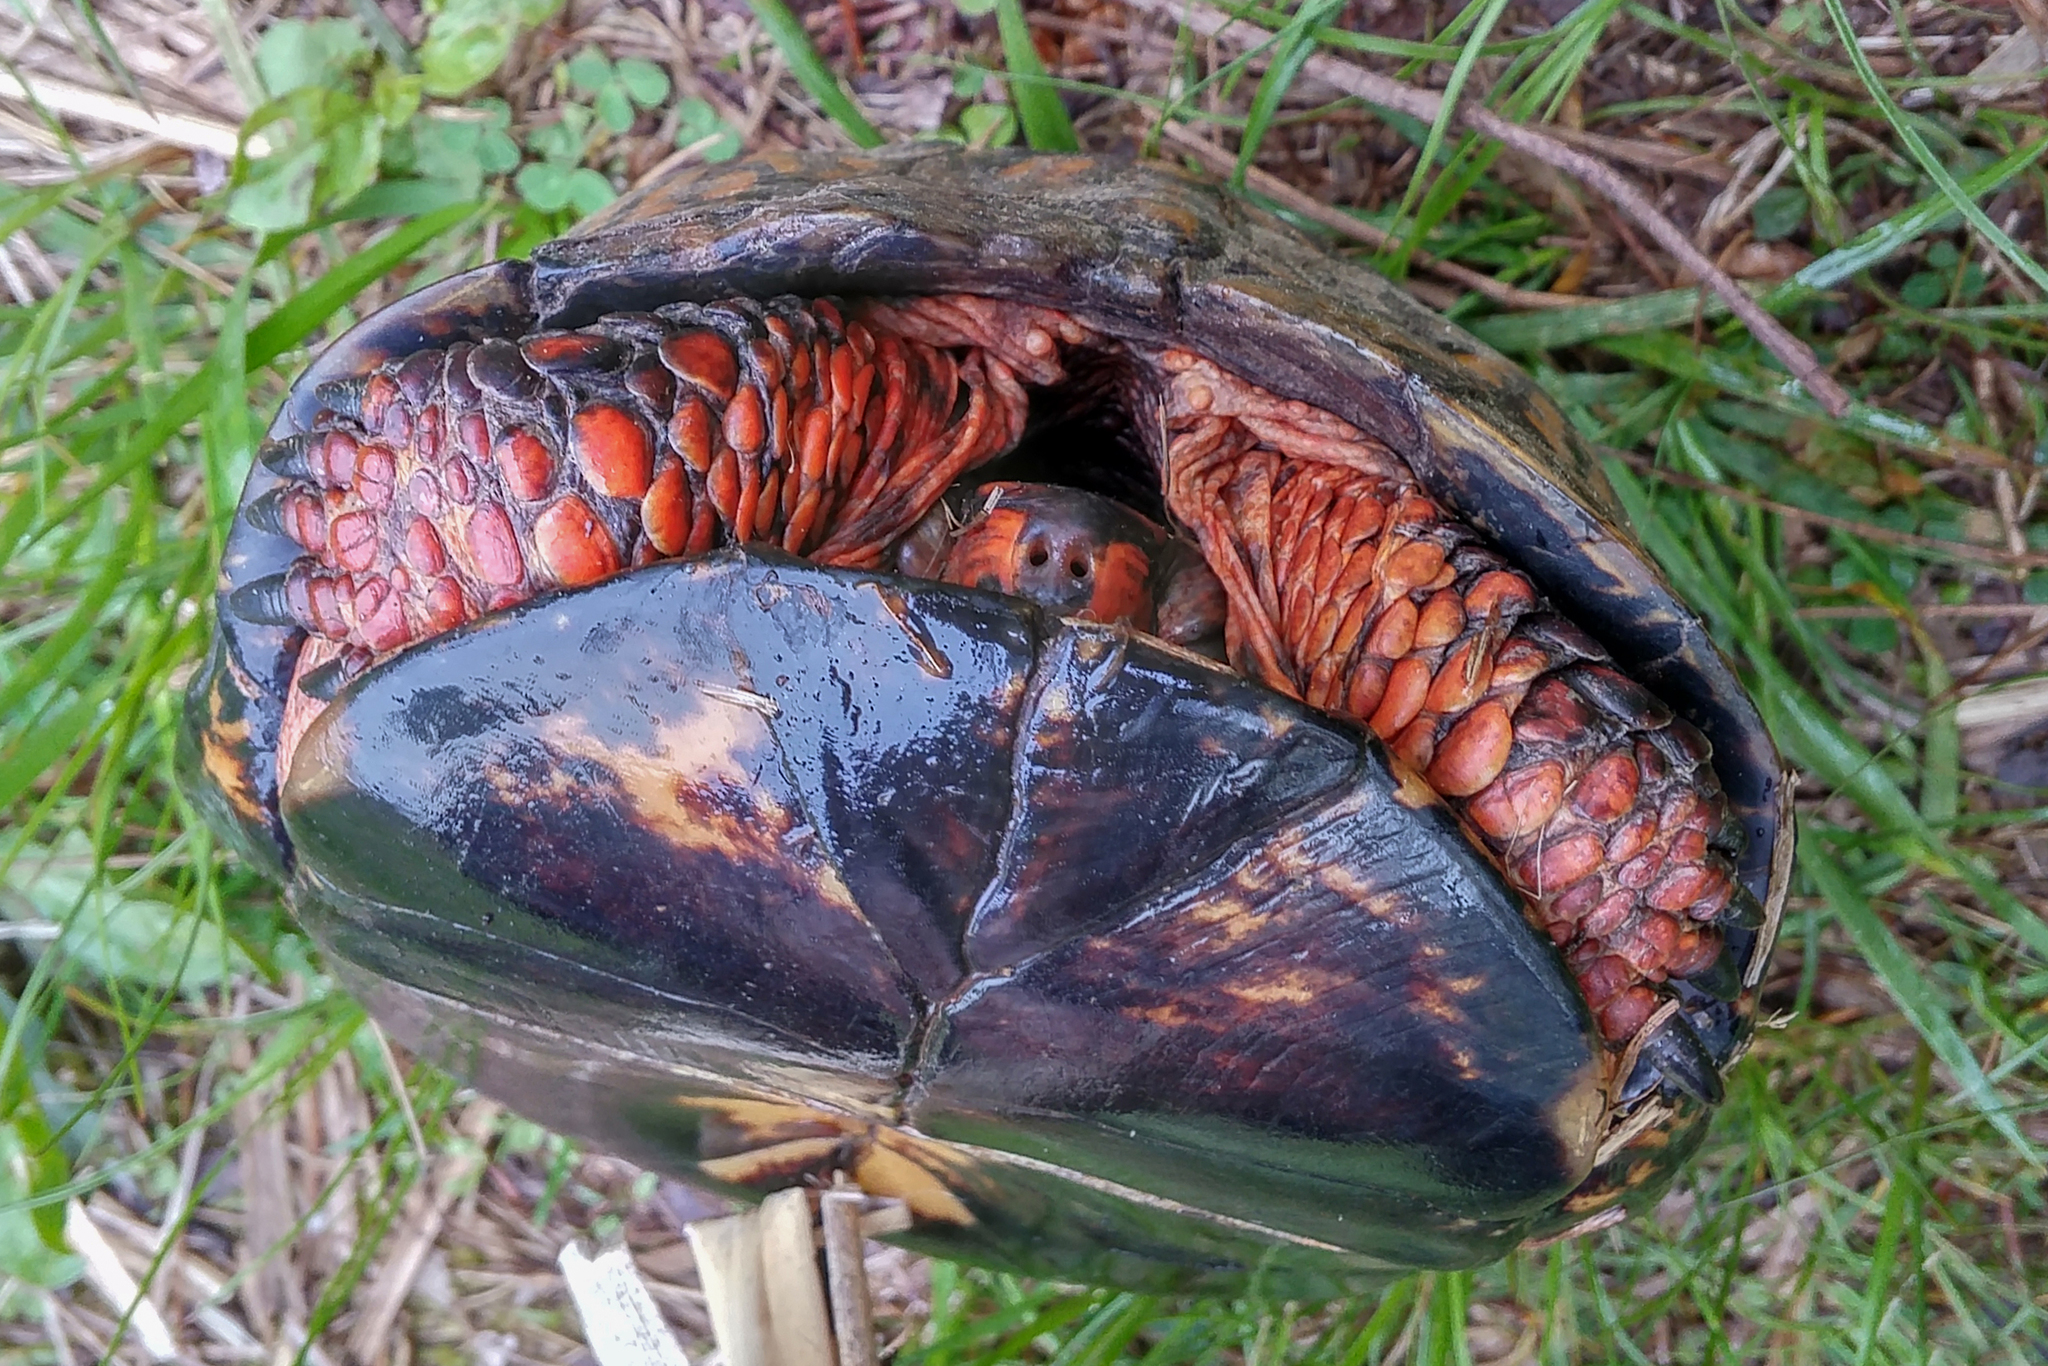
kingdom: Animalia
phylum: Chordata
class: Testudines
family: Emydidae
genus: Terrapene
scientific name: Terrapene carolina
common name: Common box turtle
